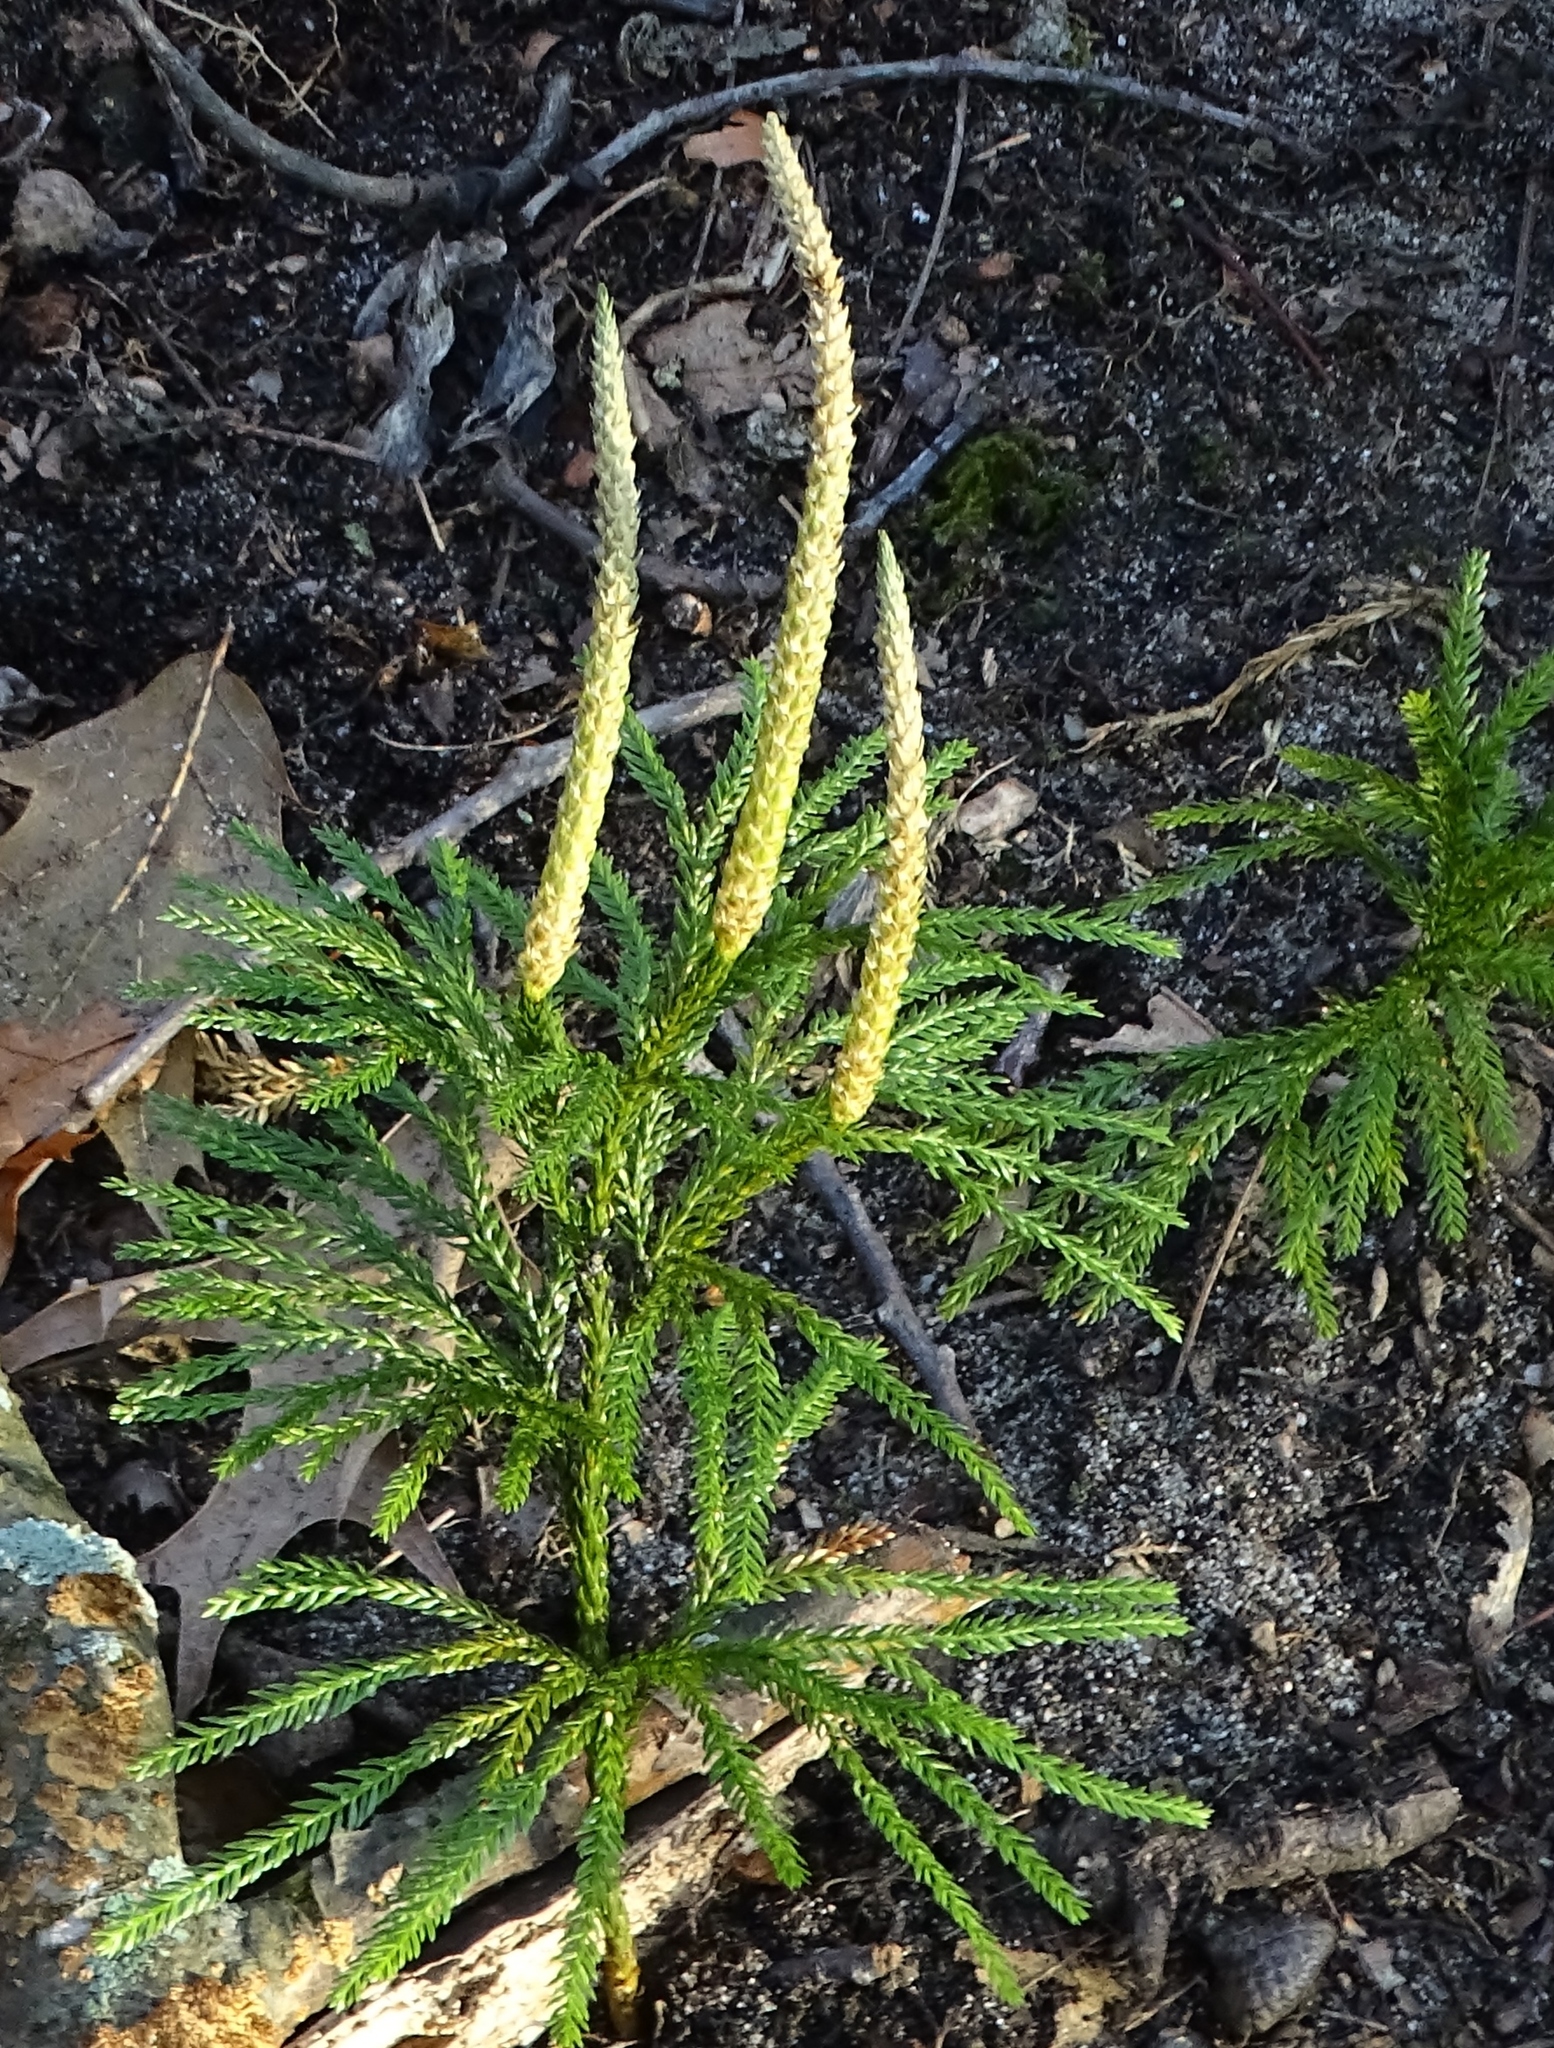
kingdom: Plantae
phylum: Tracheophyta
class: Lycopodiopsida
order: Lycopodiales
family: Lycopodiaceae
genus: Dendrolycopodium
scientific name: Dendrolycopodium obscurum
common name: Common ground-pine
